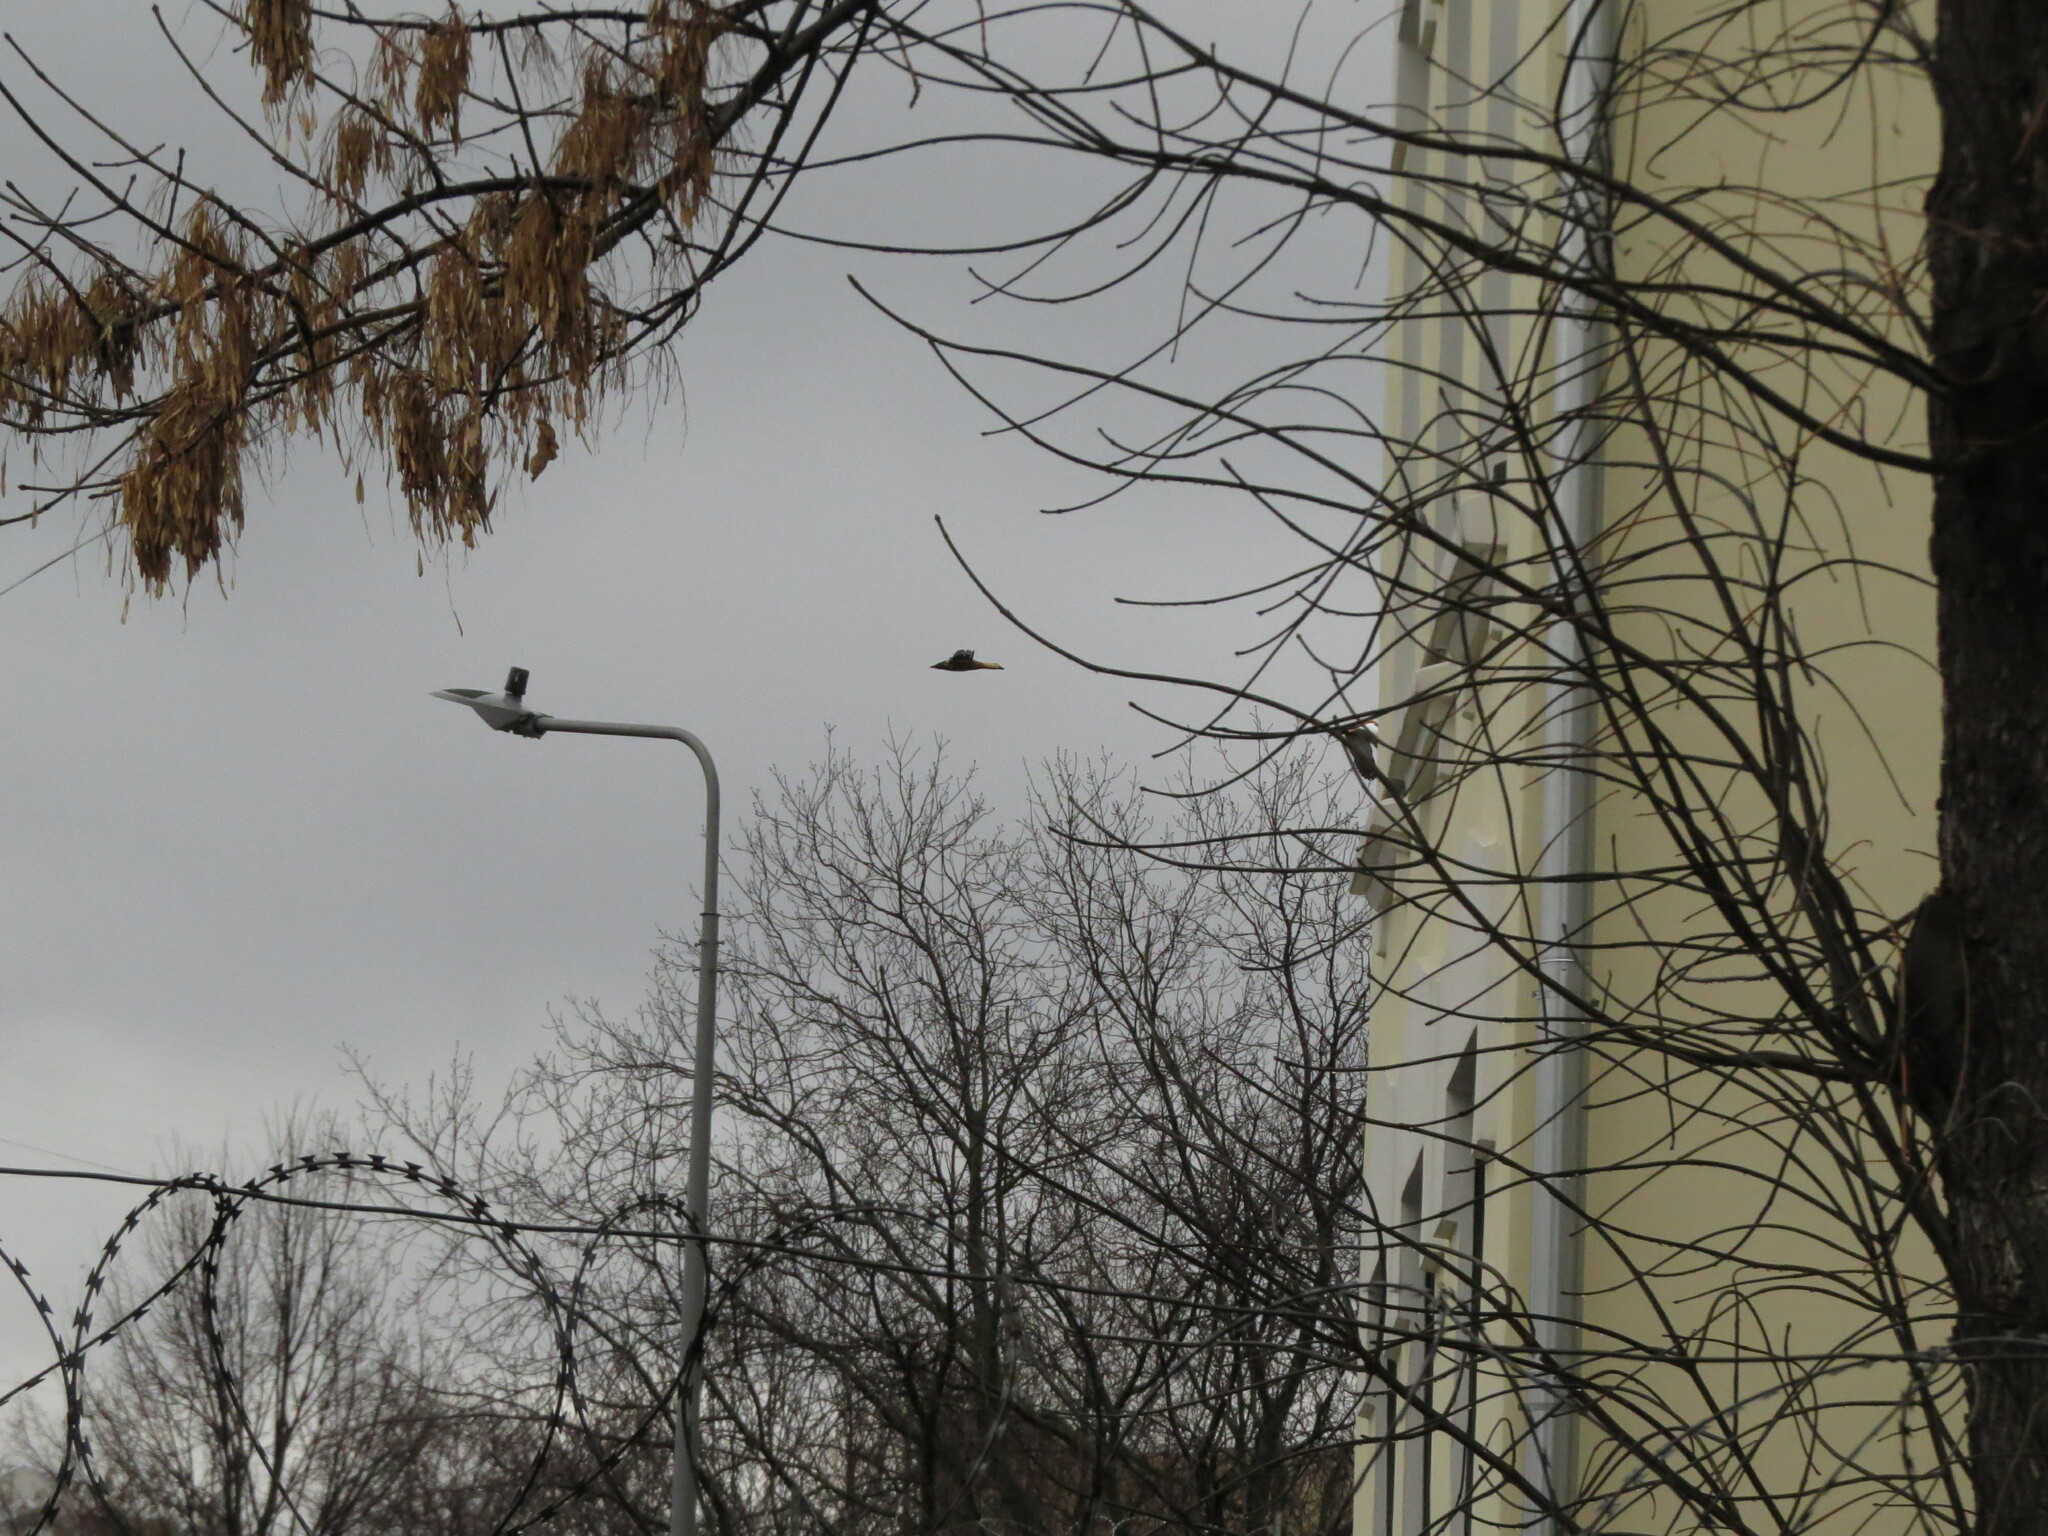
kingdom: Animalia
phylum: Chordata
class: Aves
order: Anseriformes
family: Anatidae
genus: Tadorna
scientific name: Tadorna ferruginea
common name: Ruddy shelduck
